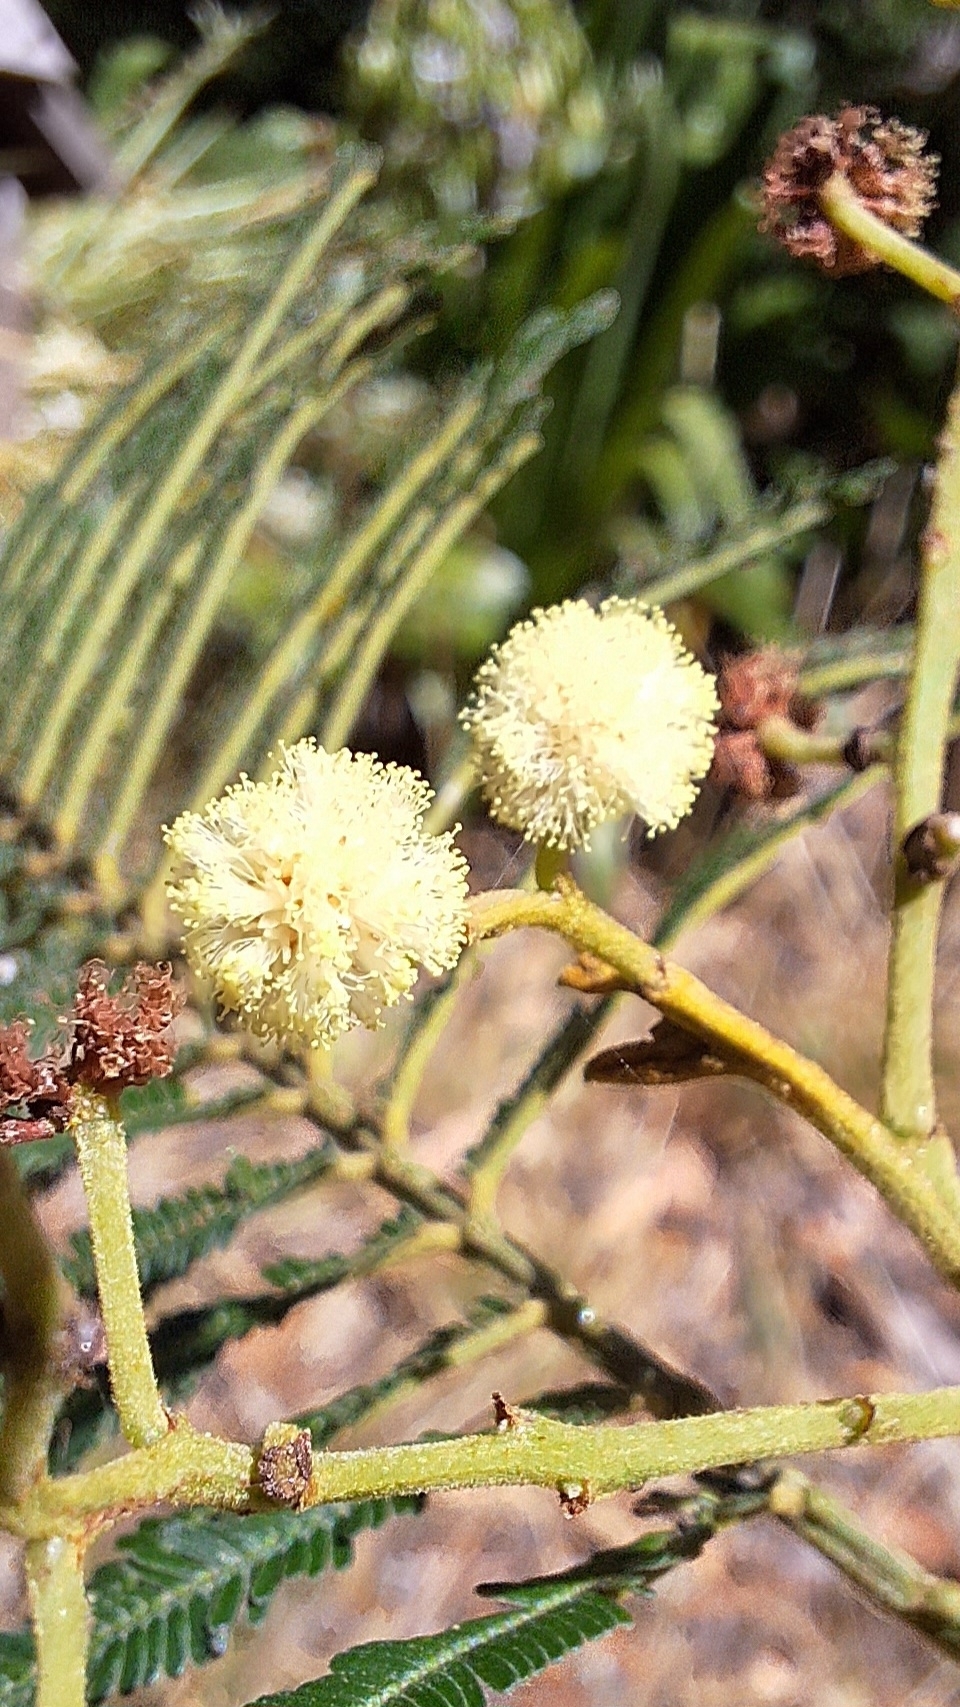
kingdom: Plantae
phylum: Tracheophyta
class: Magnoliopsida
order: Fabales
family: Fabaceae
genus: Acacia
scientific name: Acacia mearnsii
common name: Black wattle
